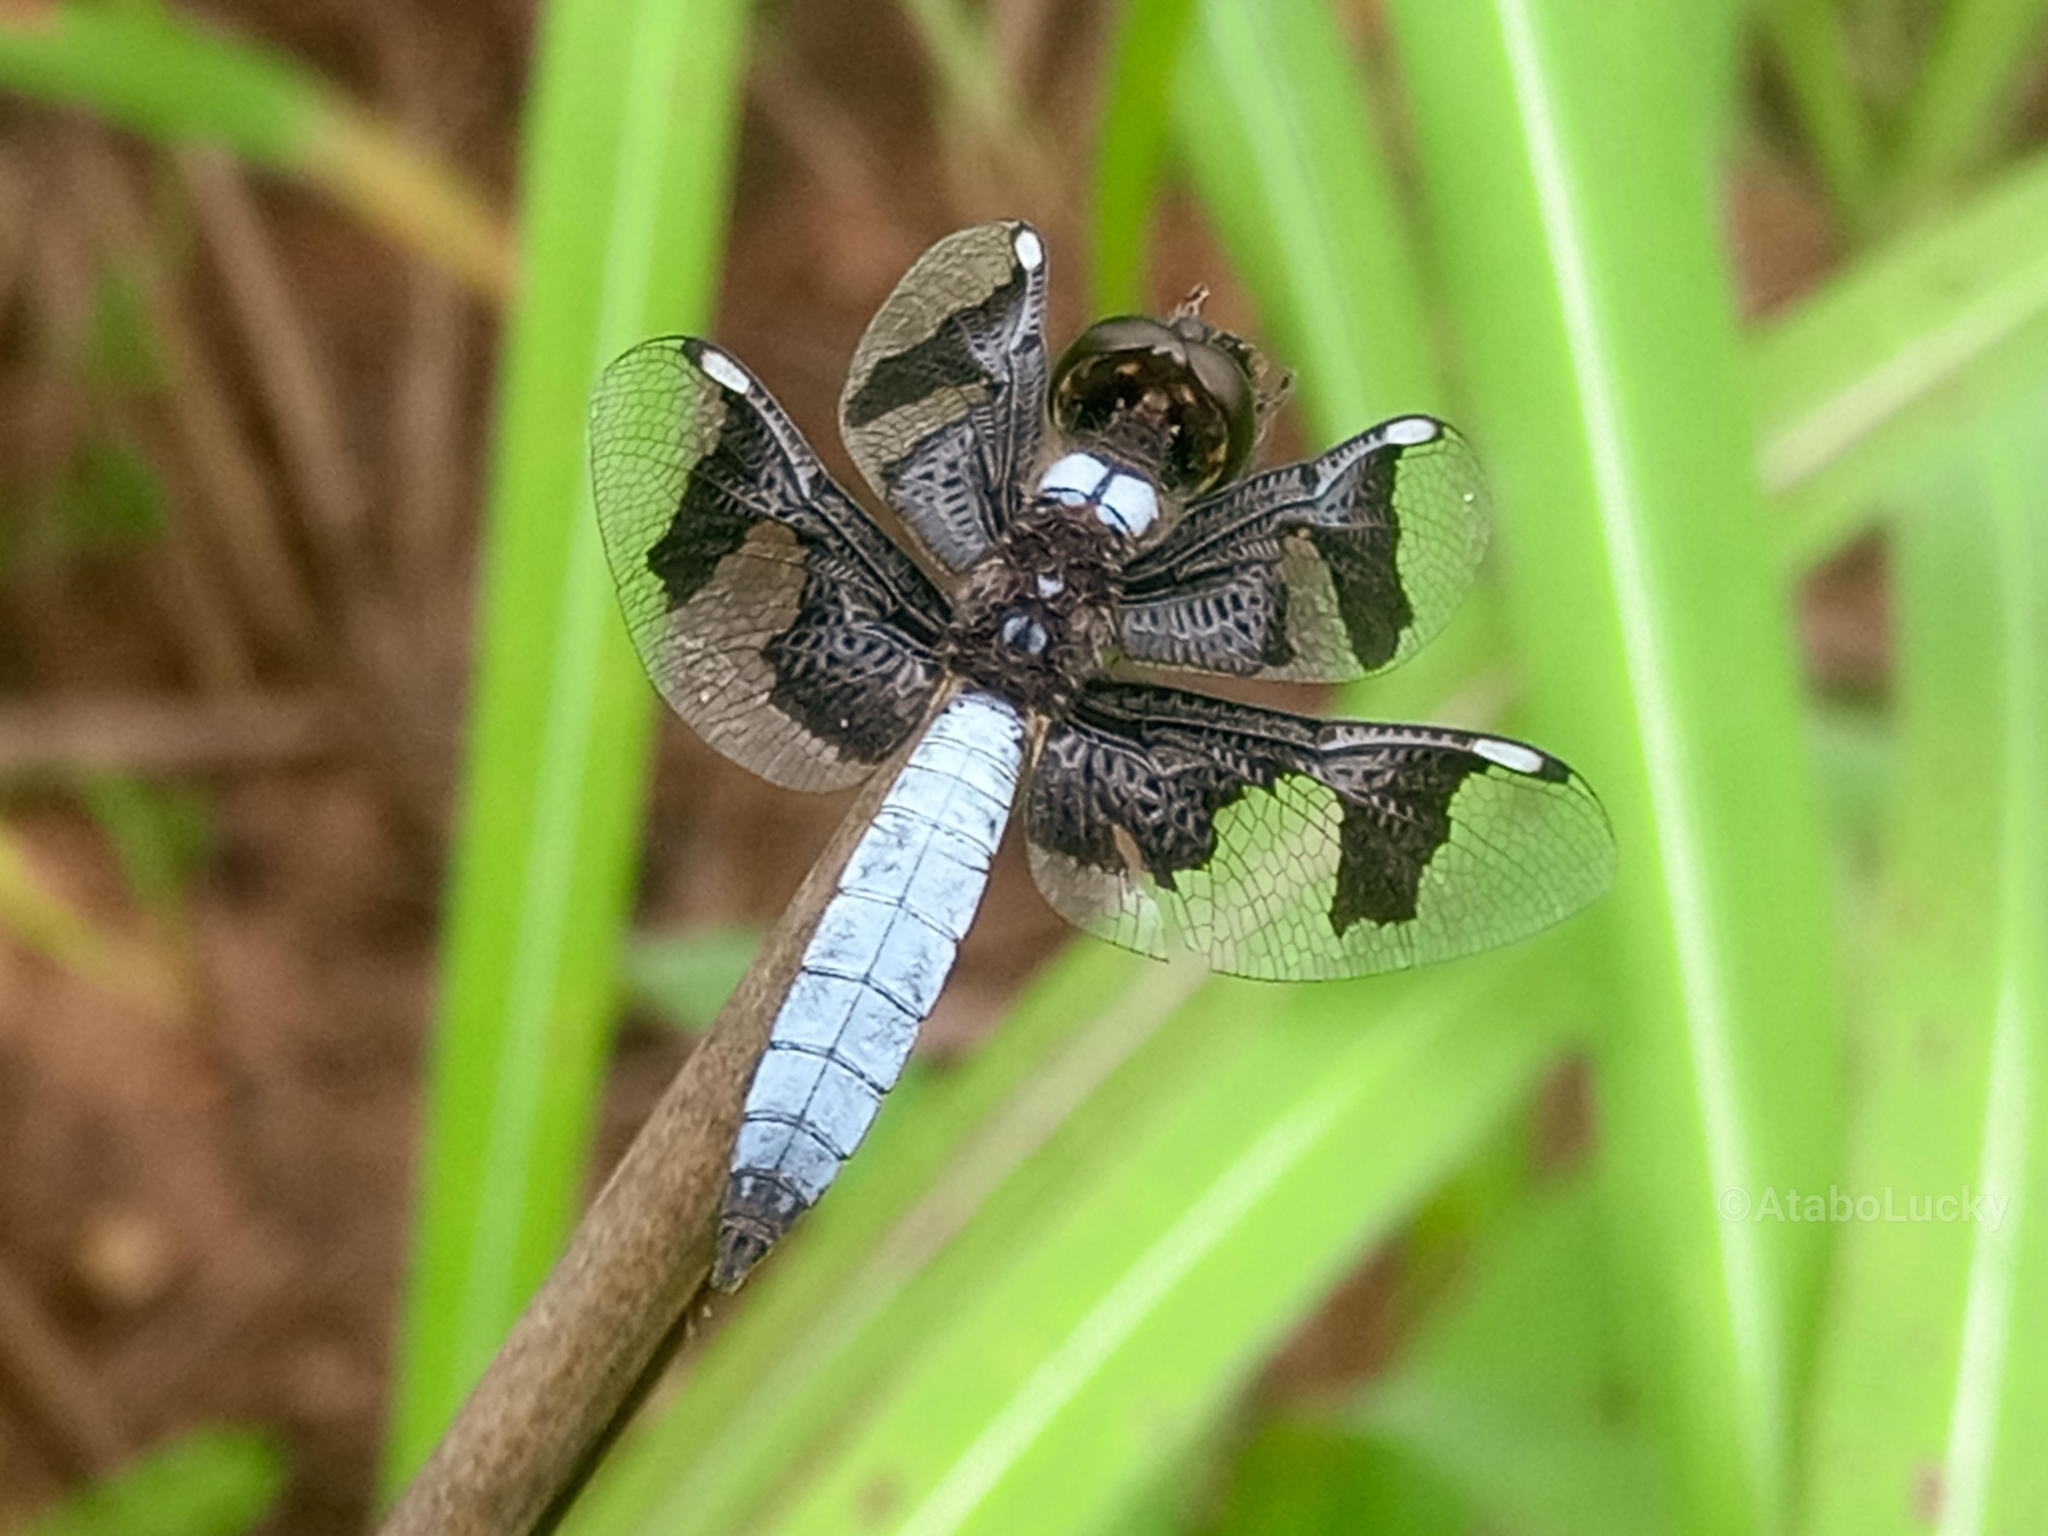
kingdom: Animalia
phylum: Arthropoda
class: Insecta
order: Odonata
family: Libellulidae
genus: Palpopleura
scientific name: Palpopleura portia
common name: Portia widow
